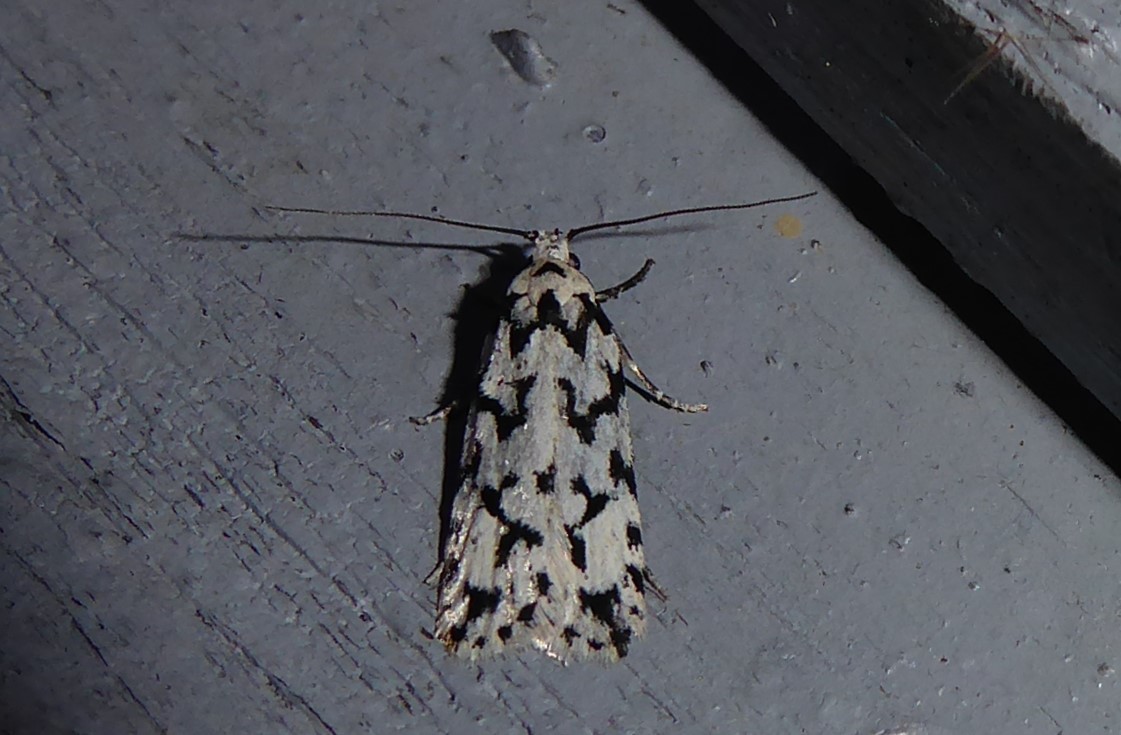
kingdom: Animalia
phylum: Arthropoda
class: Insecta
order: Lepidoptera
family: Oecophoridae
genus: Izatha
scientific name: Izatha katadiktya
